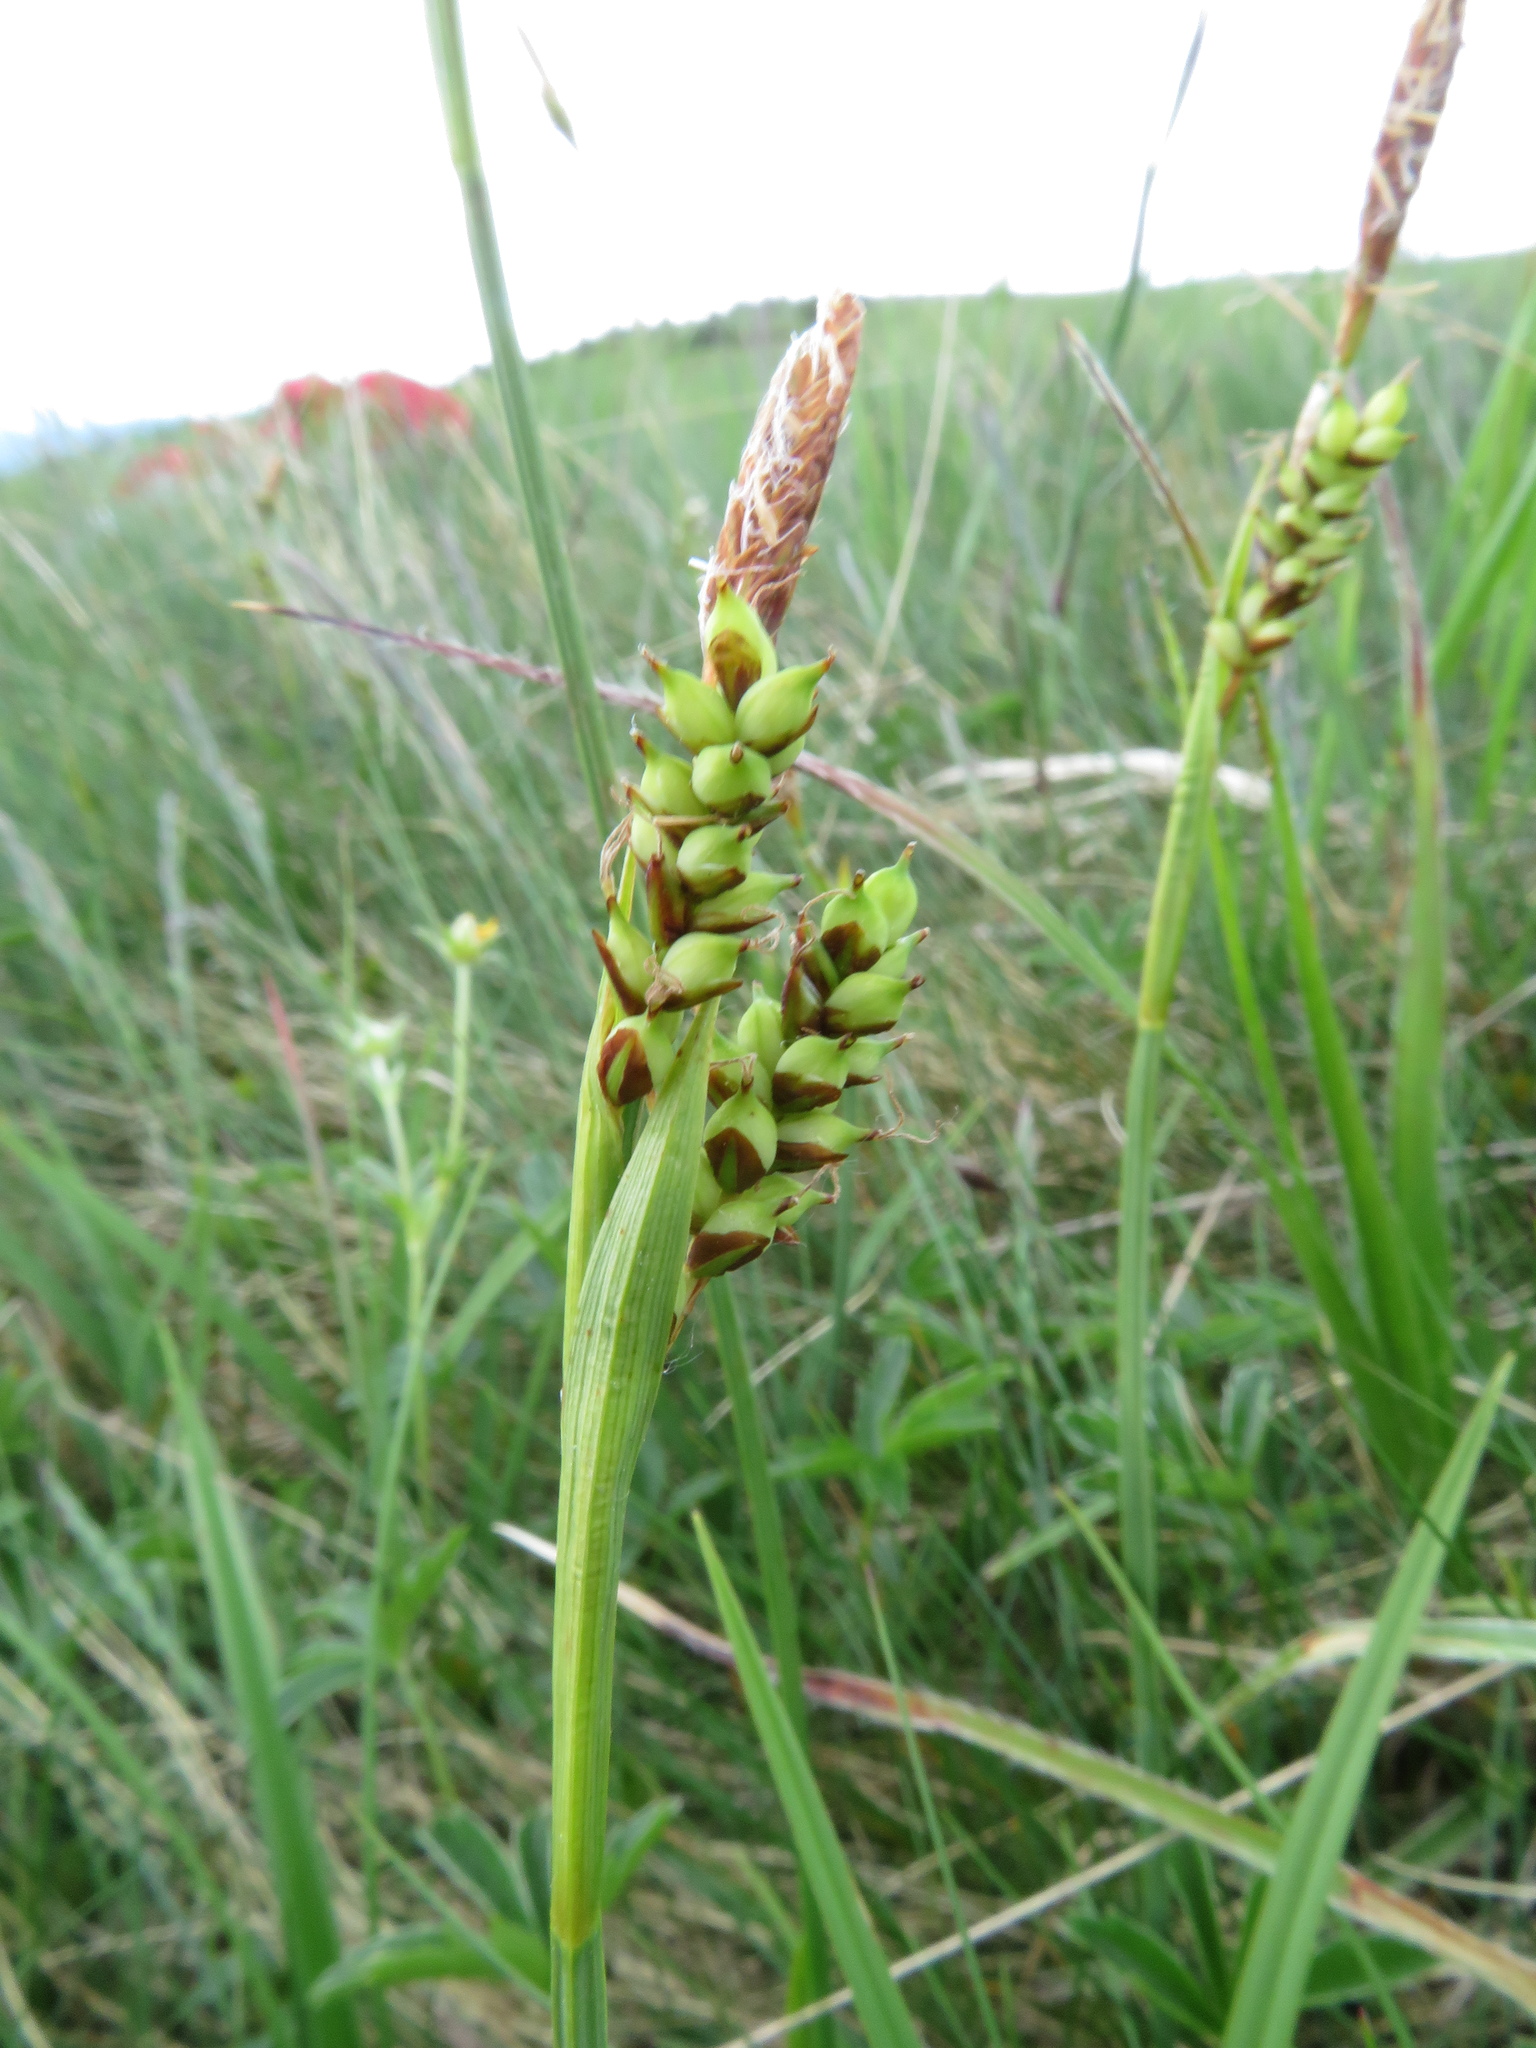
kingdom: Plantae
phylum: Tracheophyta
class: Liliopsida
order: Poales
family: Cyperaceae
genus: Carex
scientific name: Carex vaginata
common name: Sheathed sedge
